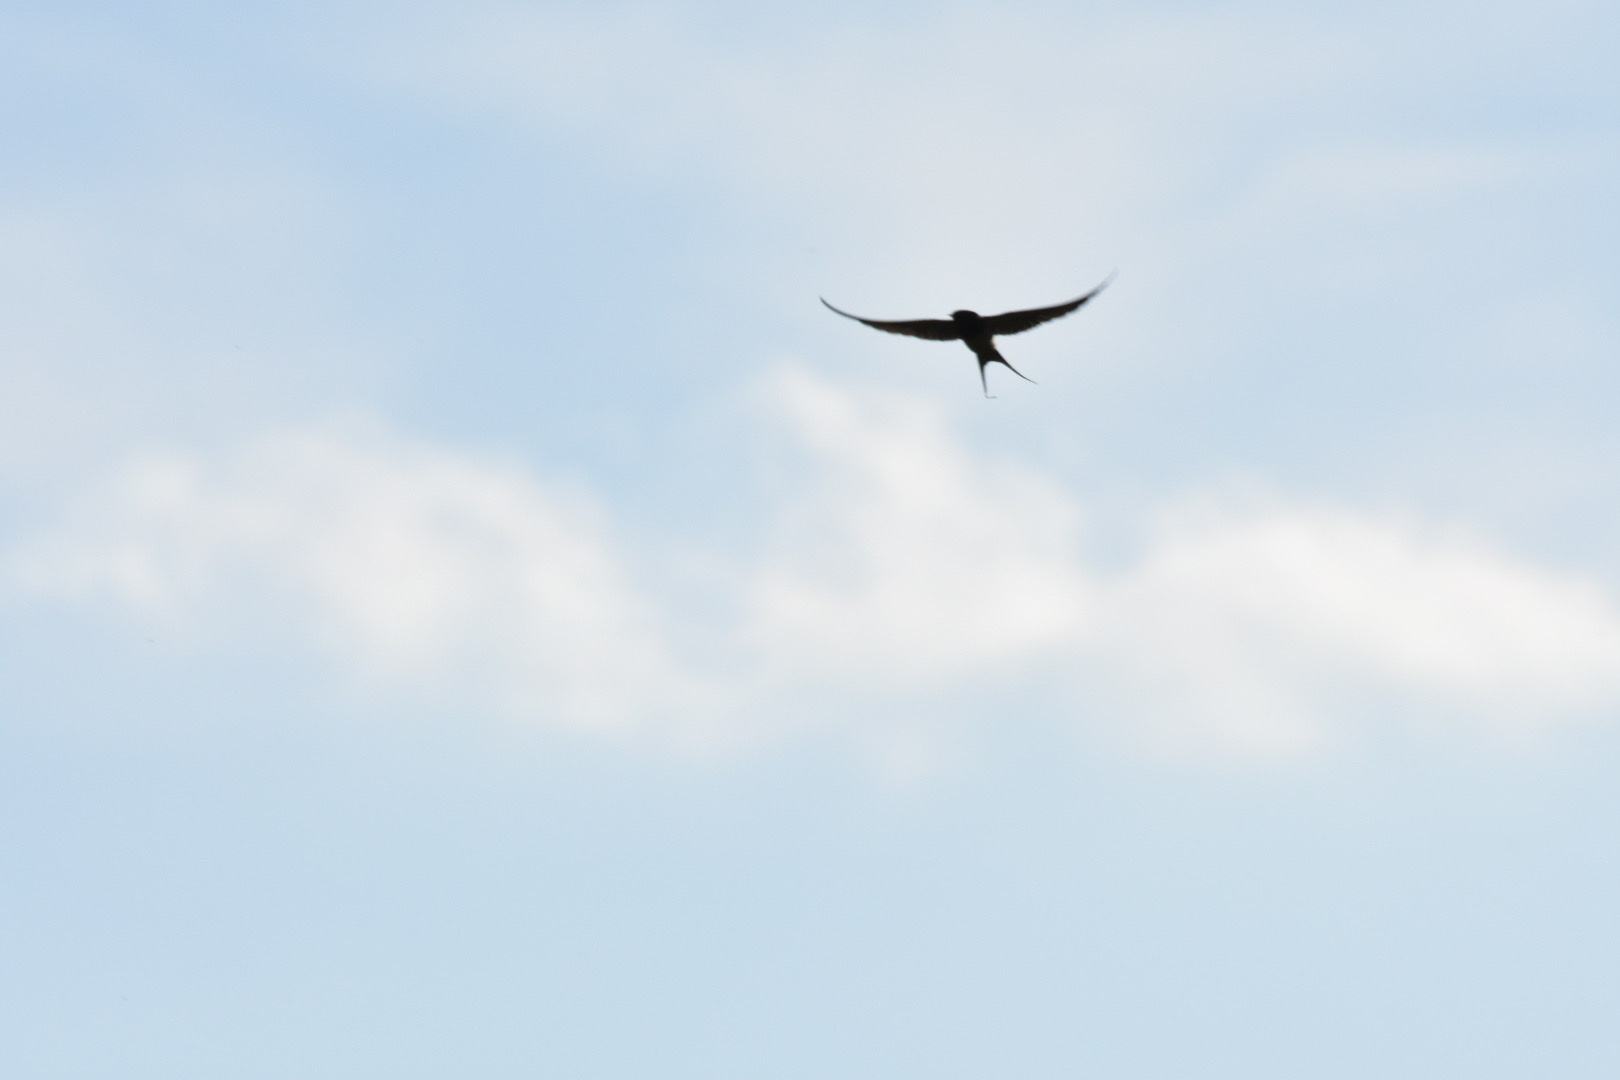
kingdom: Animalia
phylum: Chordata
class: Aves
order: Passeriformes
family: Hirundinidae
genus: Hirundo
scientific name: Hirundo rustica
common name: Barn swallow
